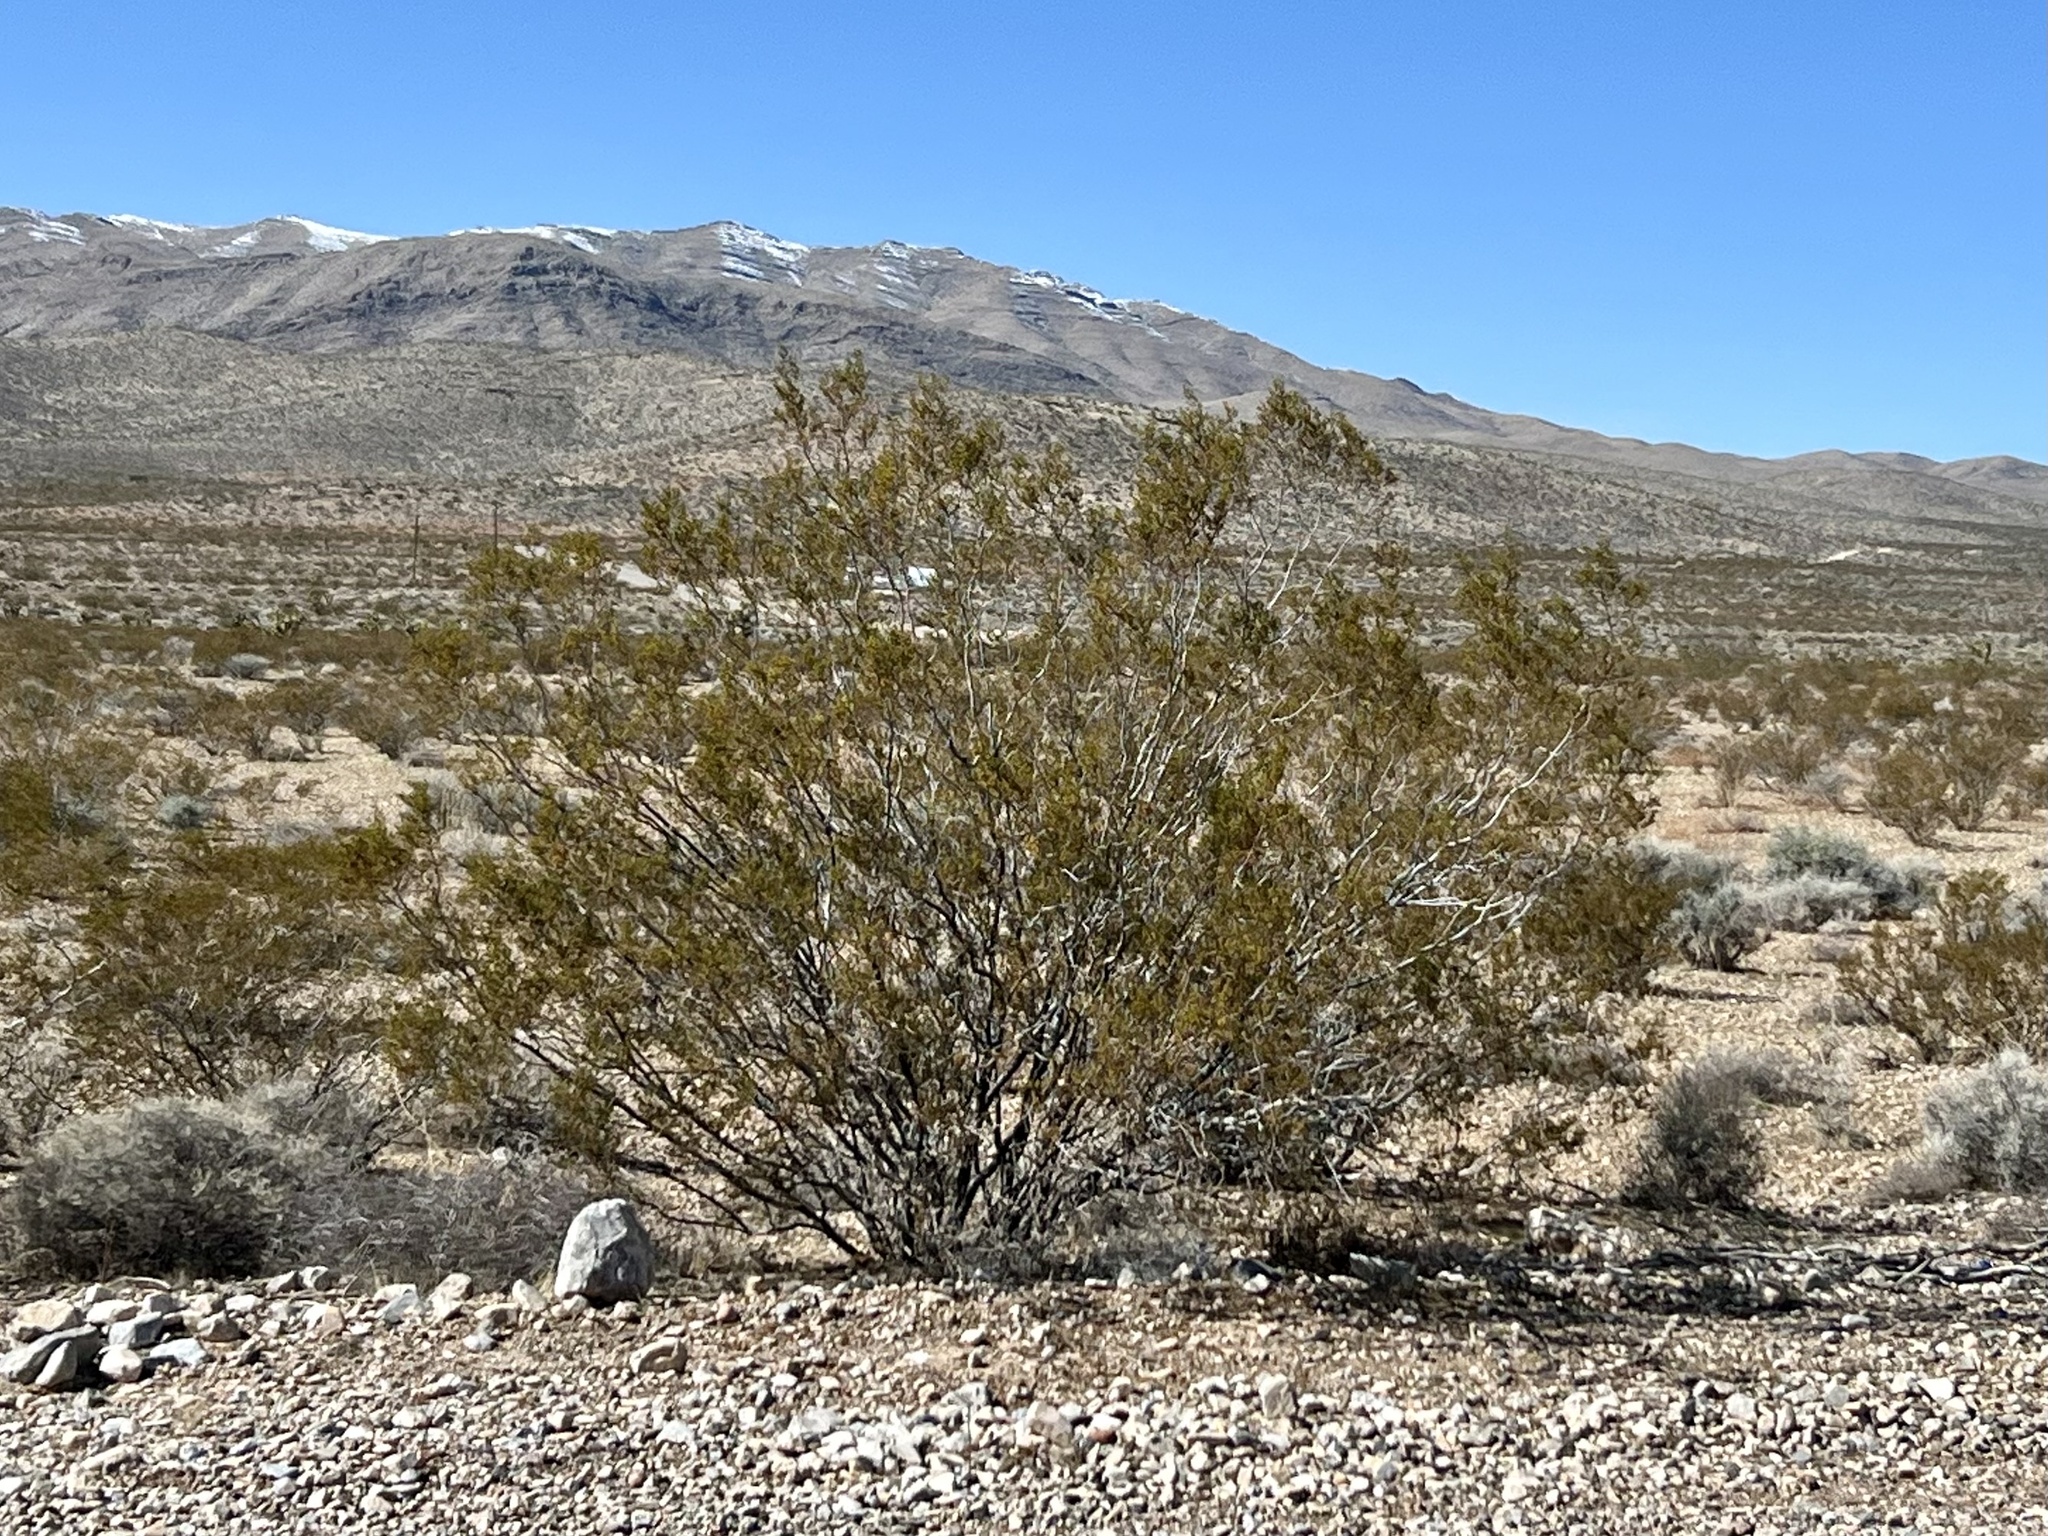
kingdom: Plantae
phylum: Tracheophyta
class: Magnoliopsida
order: Zygophyllales
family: Zygophyllaceae
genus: Larrea
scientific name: Larrea tridentata
